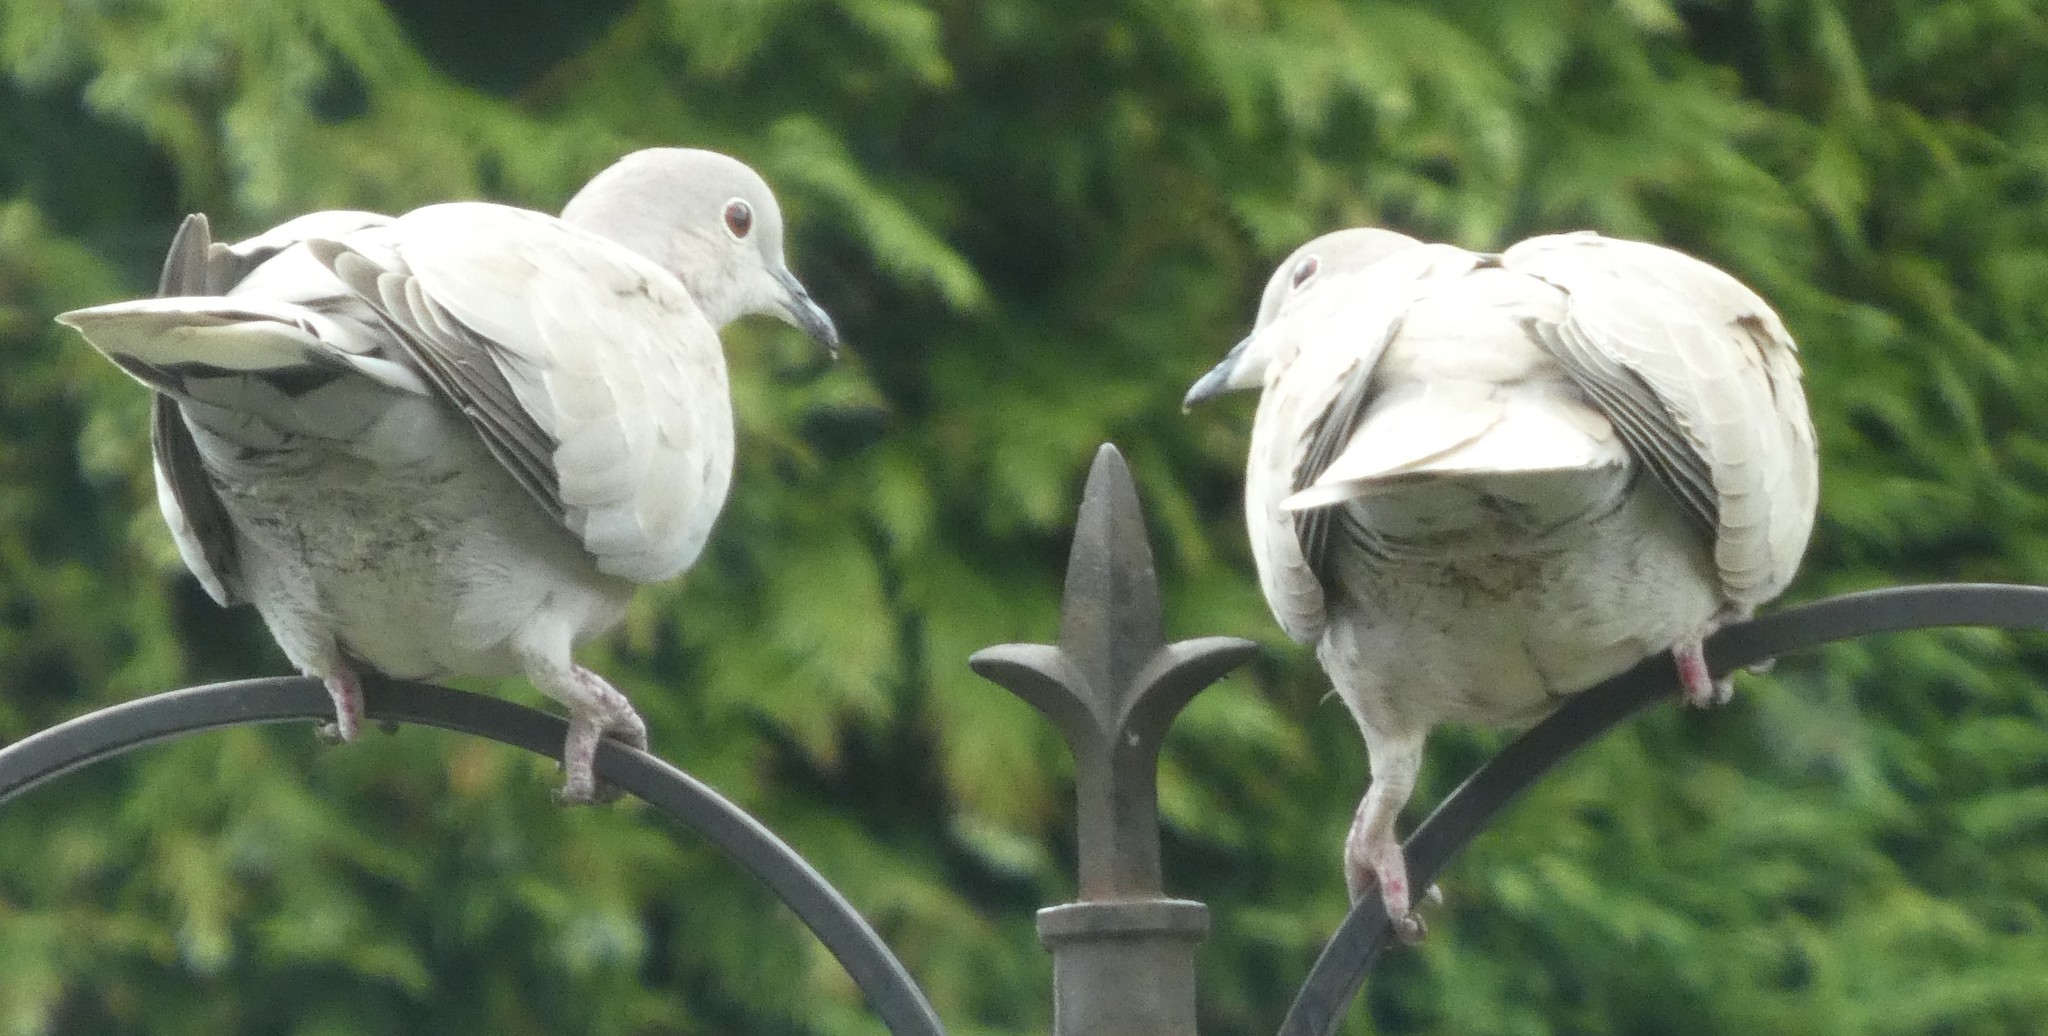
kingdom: Animalia
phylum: Chordata
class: Aves
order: Columbiformes
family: Columbidae
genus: Streptopelia
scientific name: Streptopelia decaocto
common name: Eurasian collared dove
